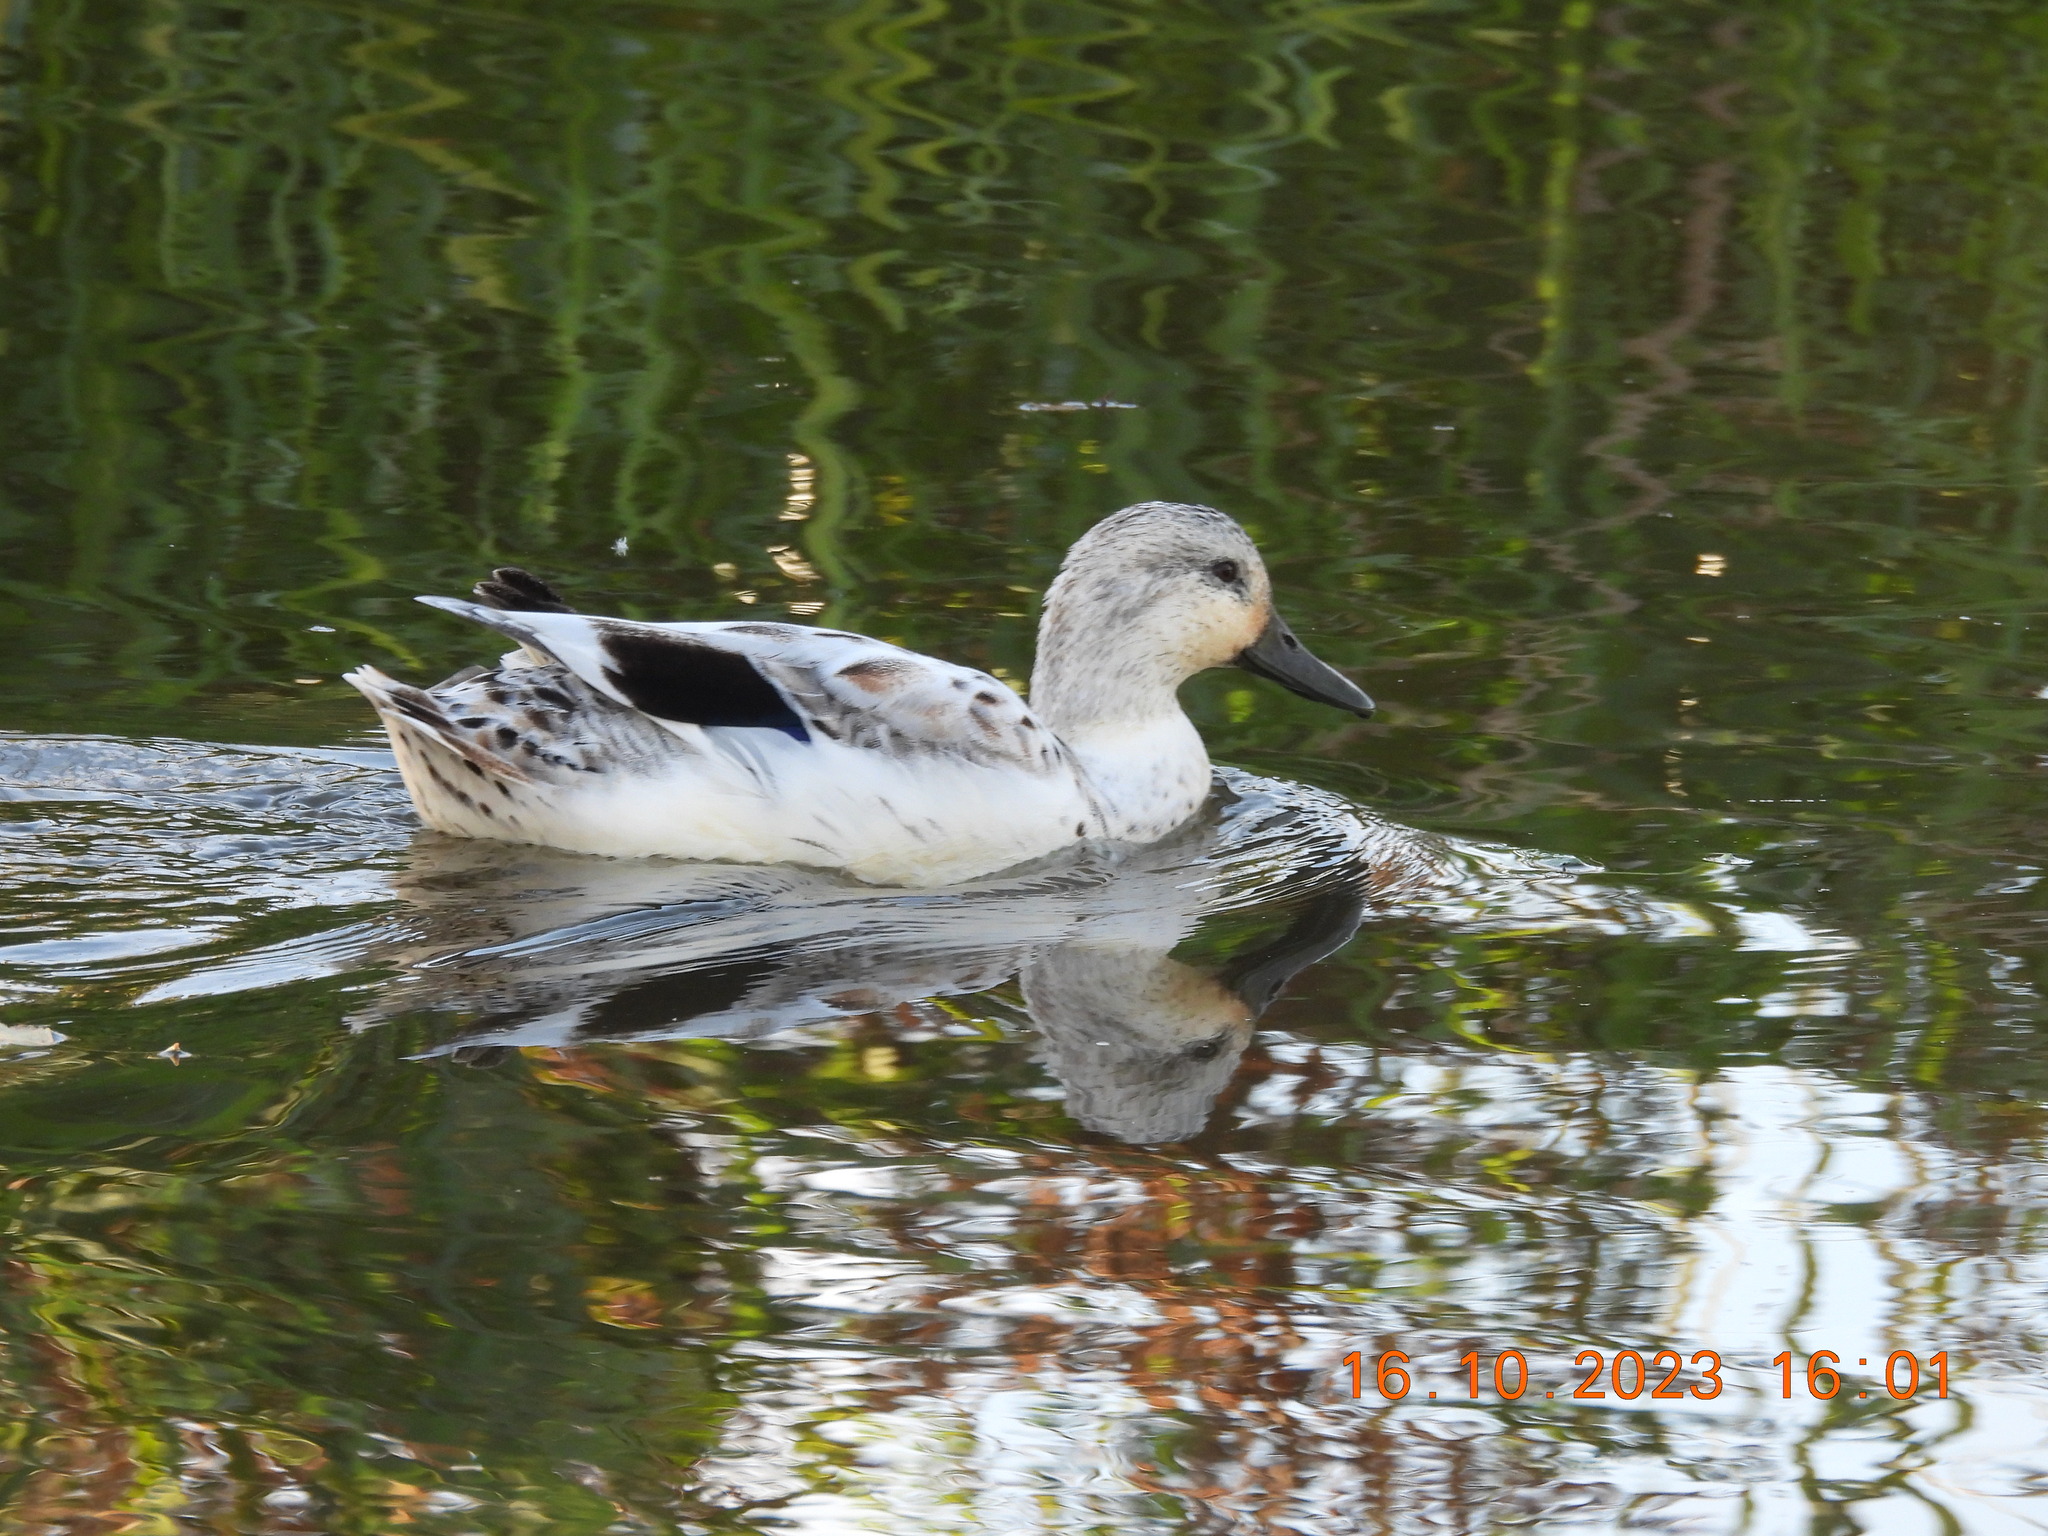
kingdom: Animalia
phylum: Chordata
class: Aves
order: Anseriformes
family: Anatidae
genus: Anas
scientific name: Anas platyrhynchos
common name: Mallard
